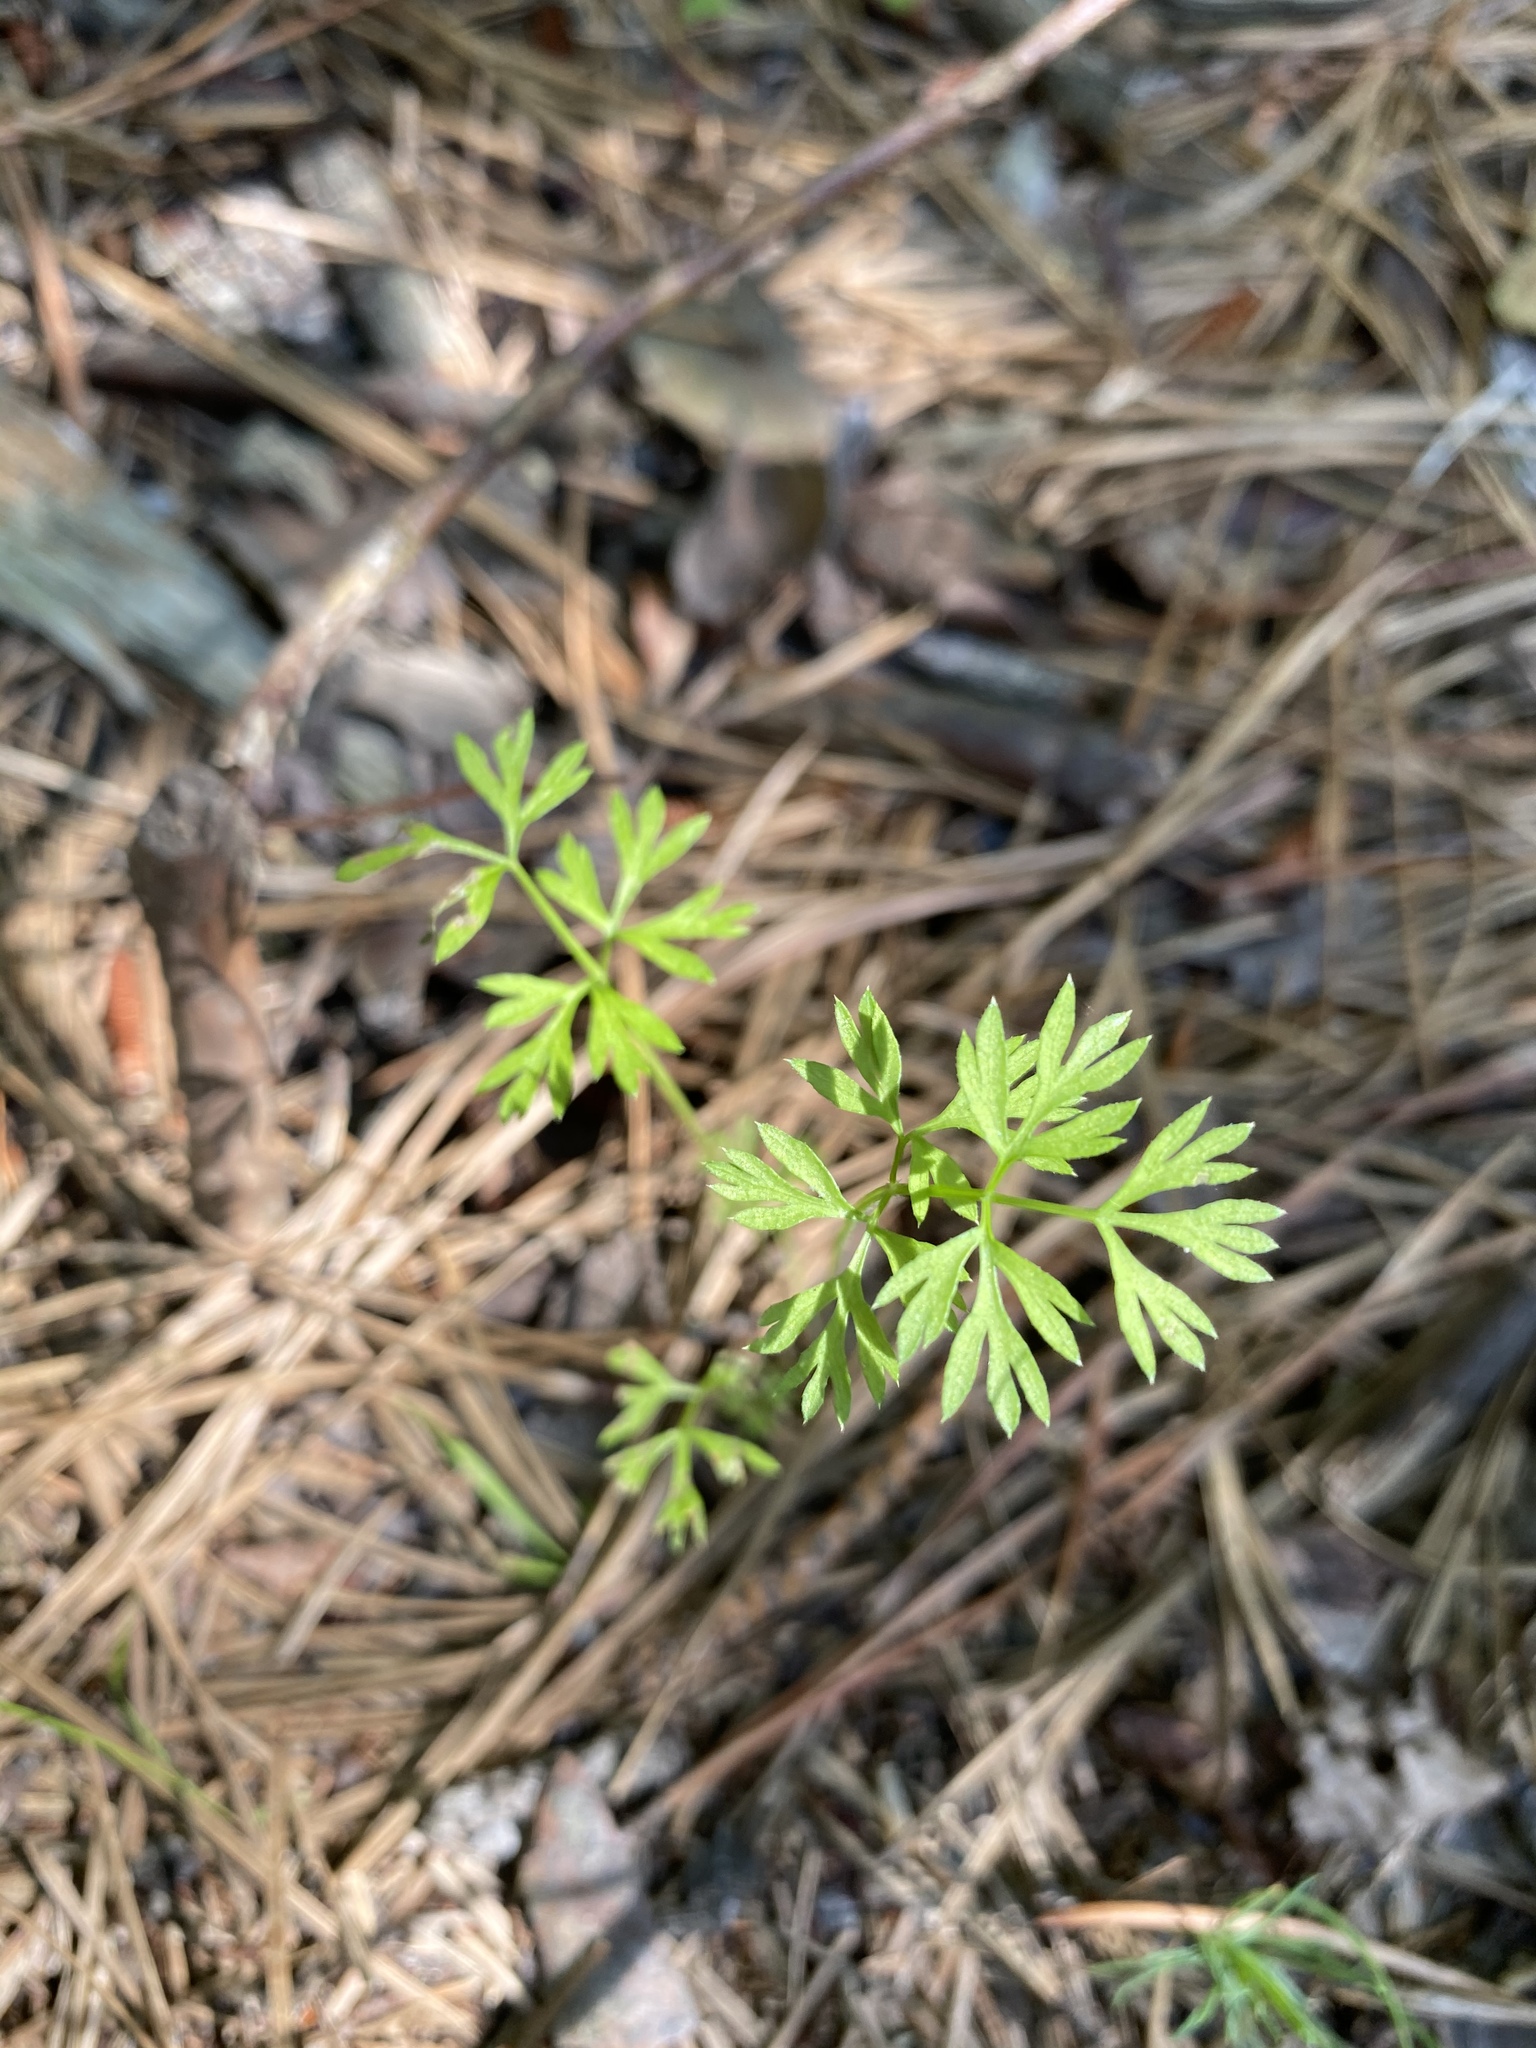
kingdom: Plantae
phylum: Tracheophyta
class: Magnoliopsida
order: Apiales
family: Apiaceae
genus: Daucus
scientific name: Daucus carota
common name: Wild carrot
